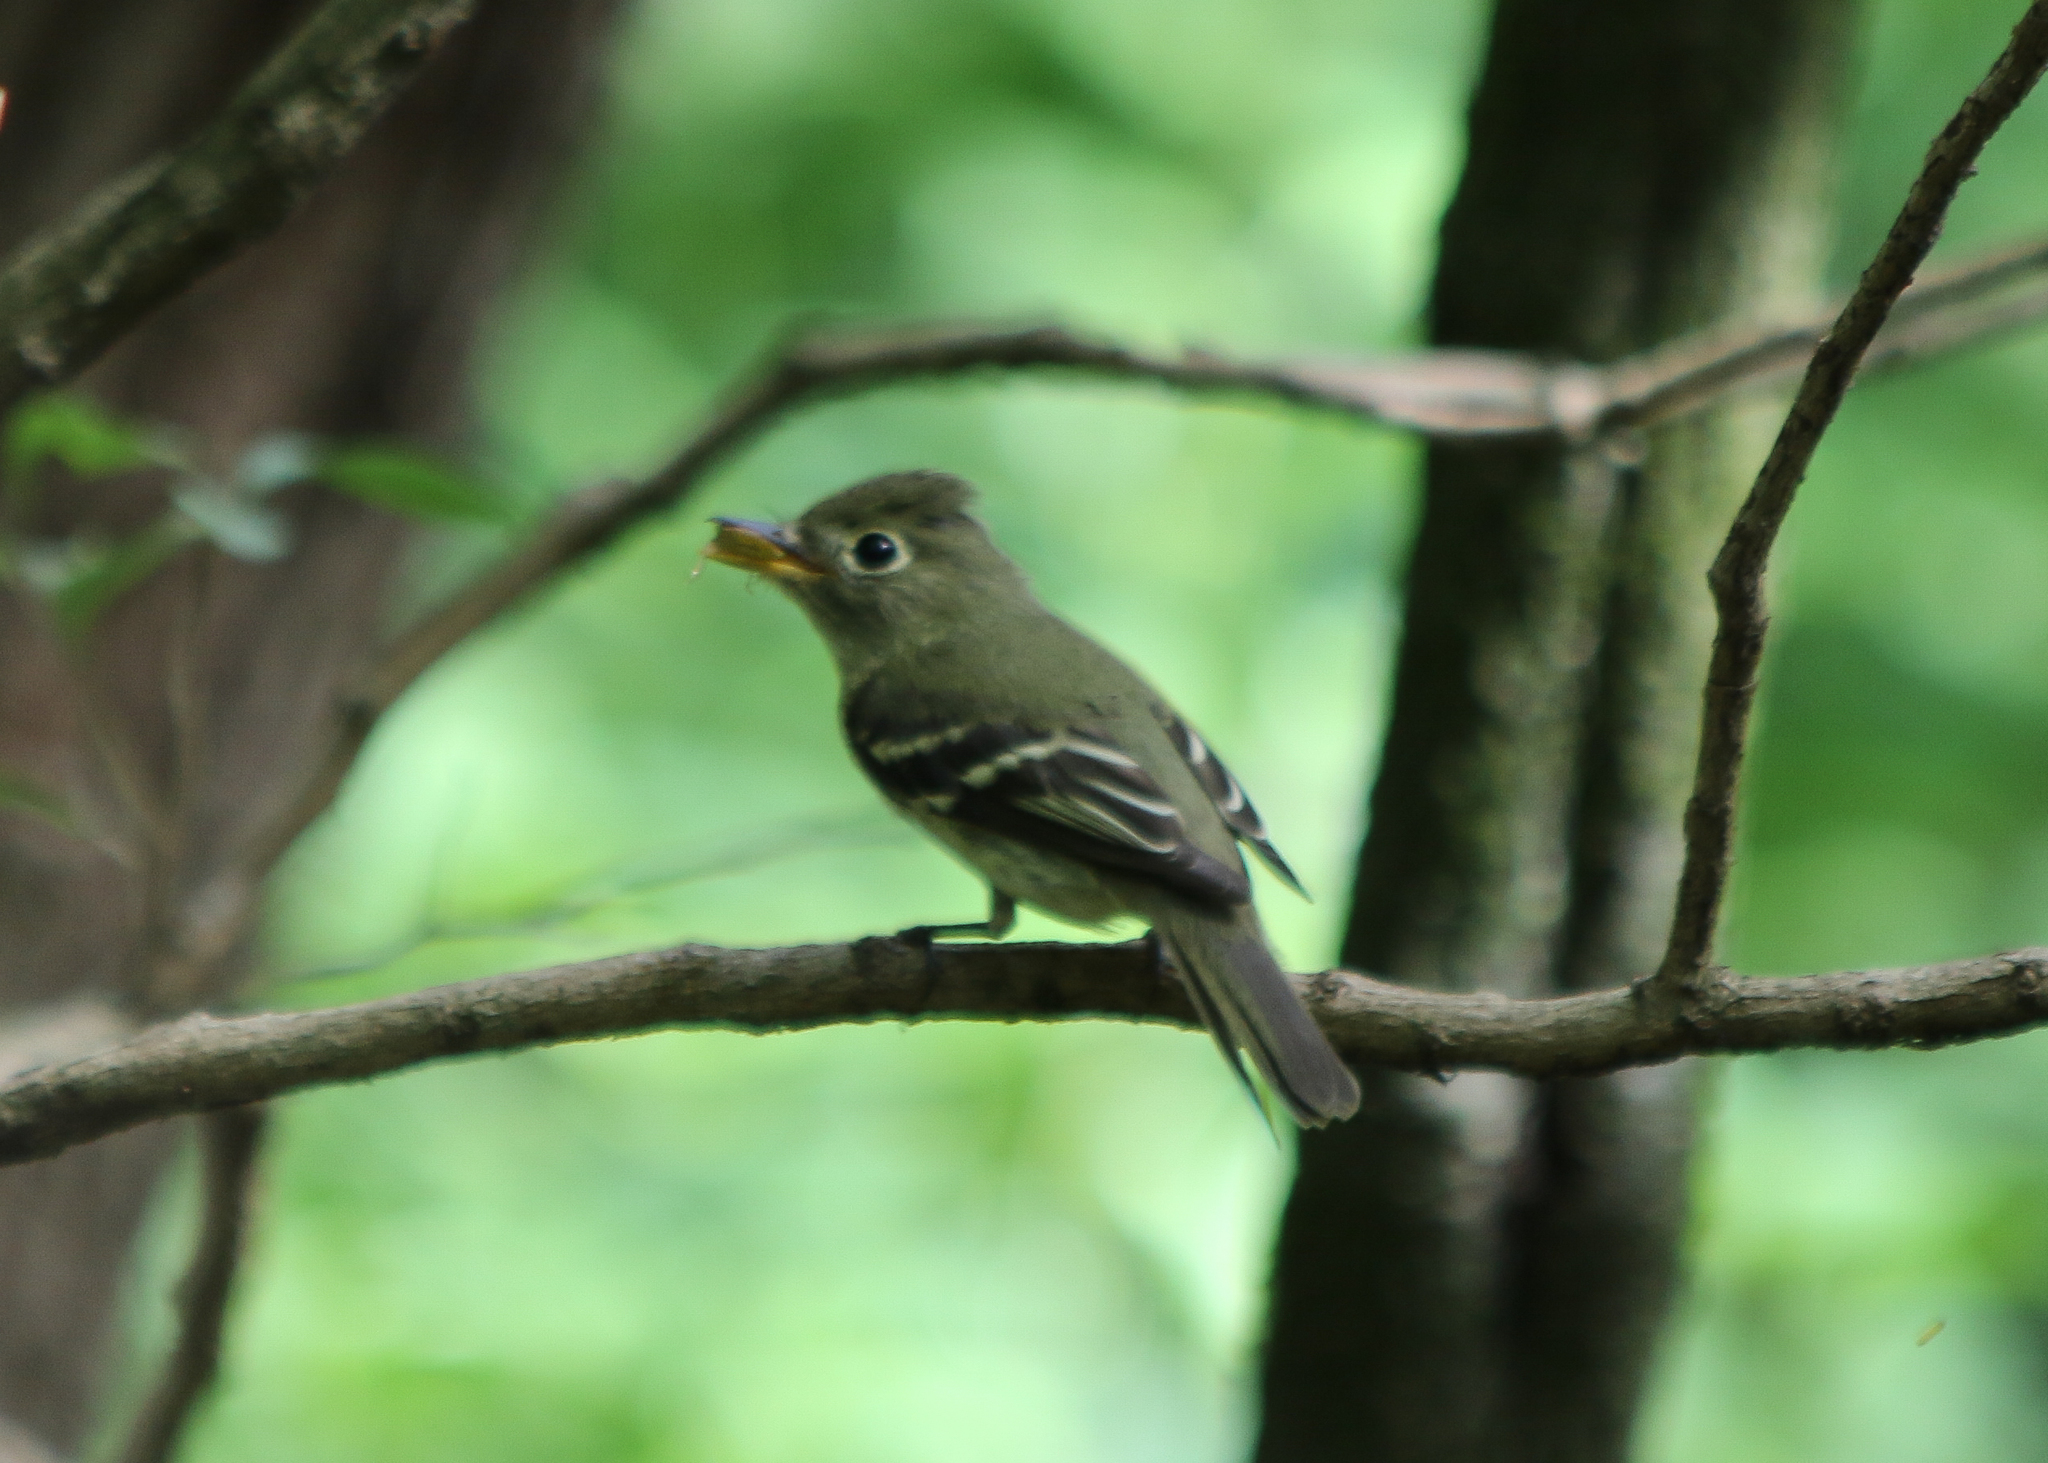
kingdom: Animalia
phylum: Chordata
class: Aves
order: Passeriformes
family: Tyrannidae
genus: Empidonax
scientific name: Empidonax flaviventris
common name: Yellow-bellied flycatcher
